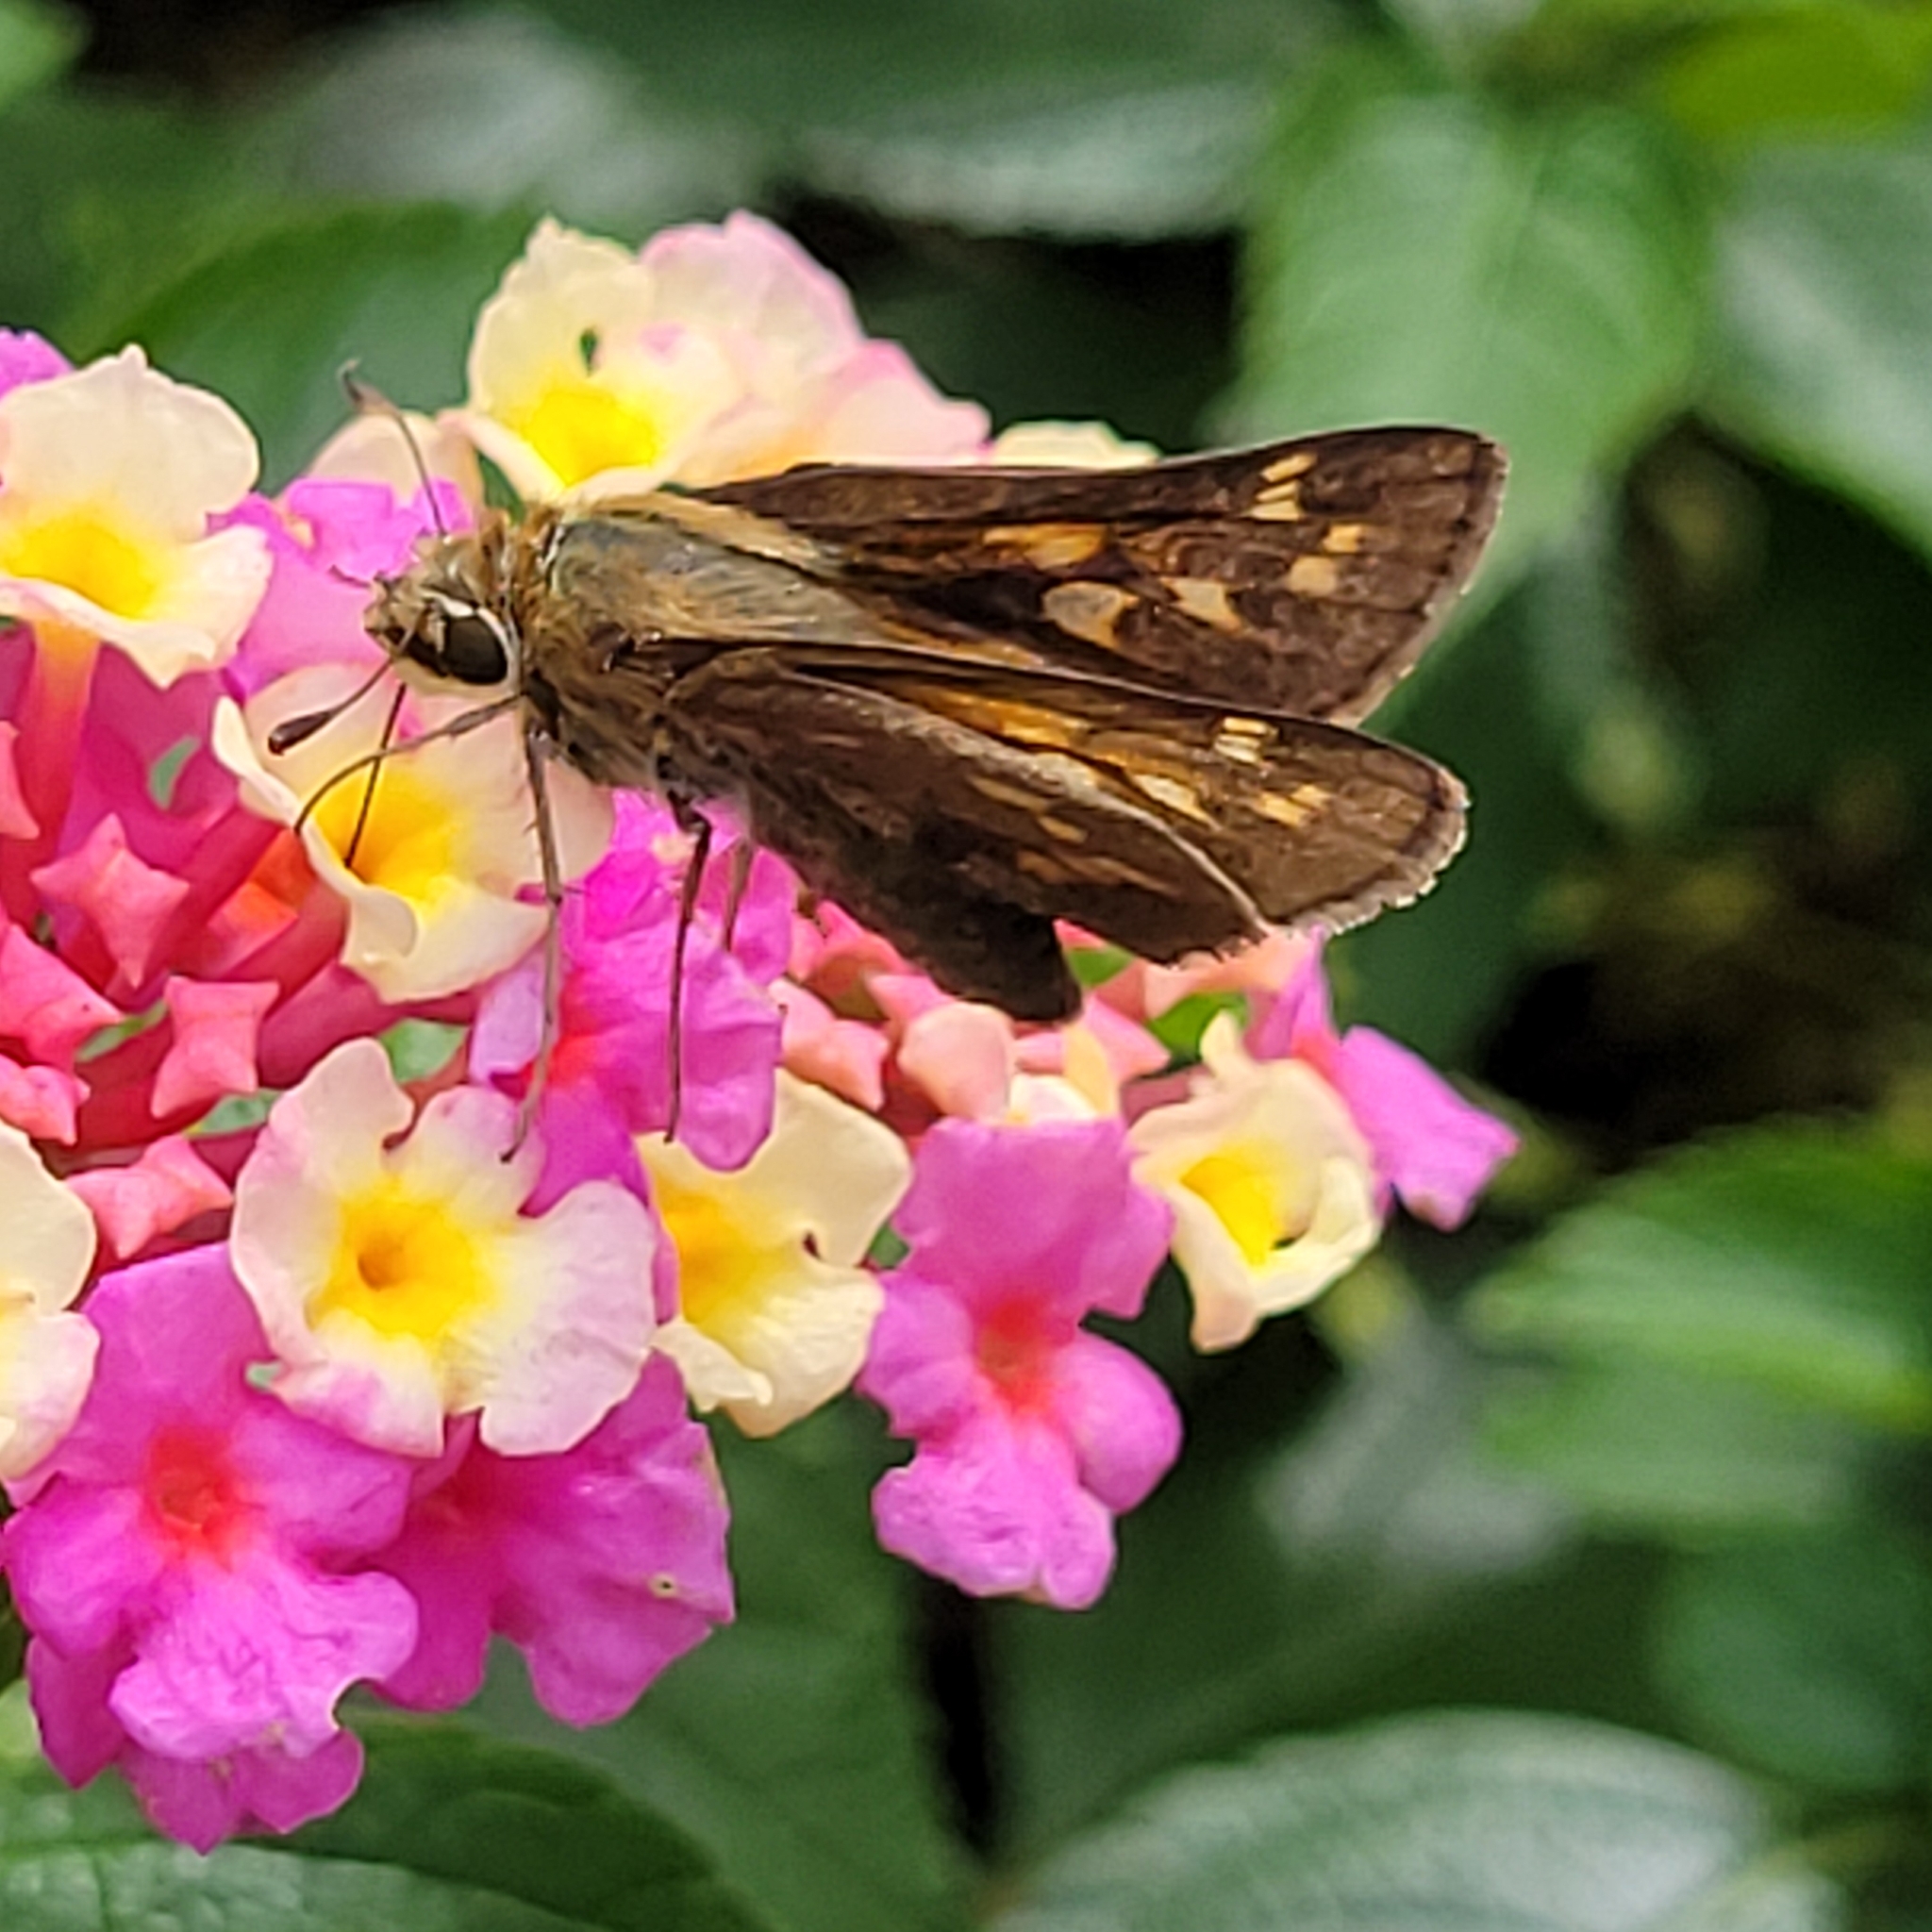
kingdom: Animalia
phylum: Arthropoda
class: Insecta
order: Lepidoptera
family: Hesperiidae
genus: Atalopedes
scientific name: Atalopedes
